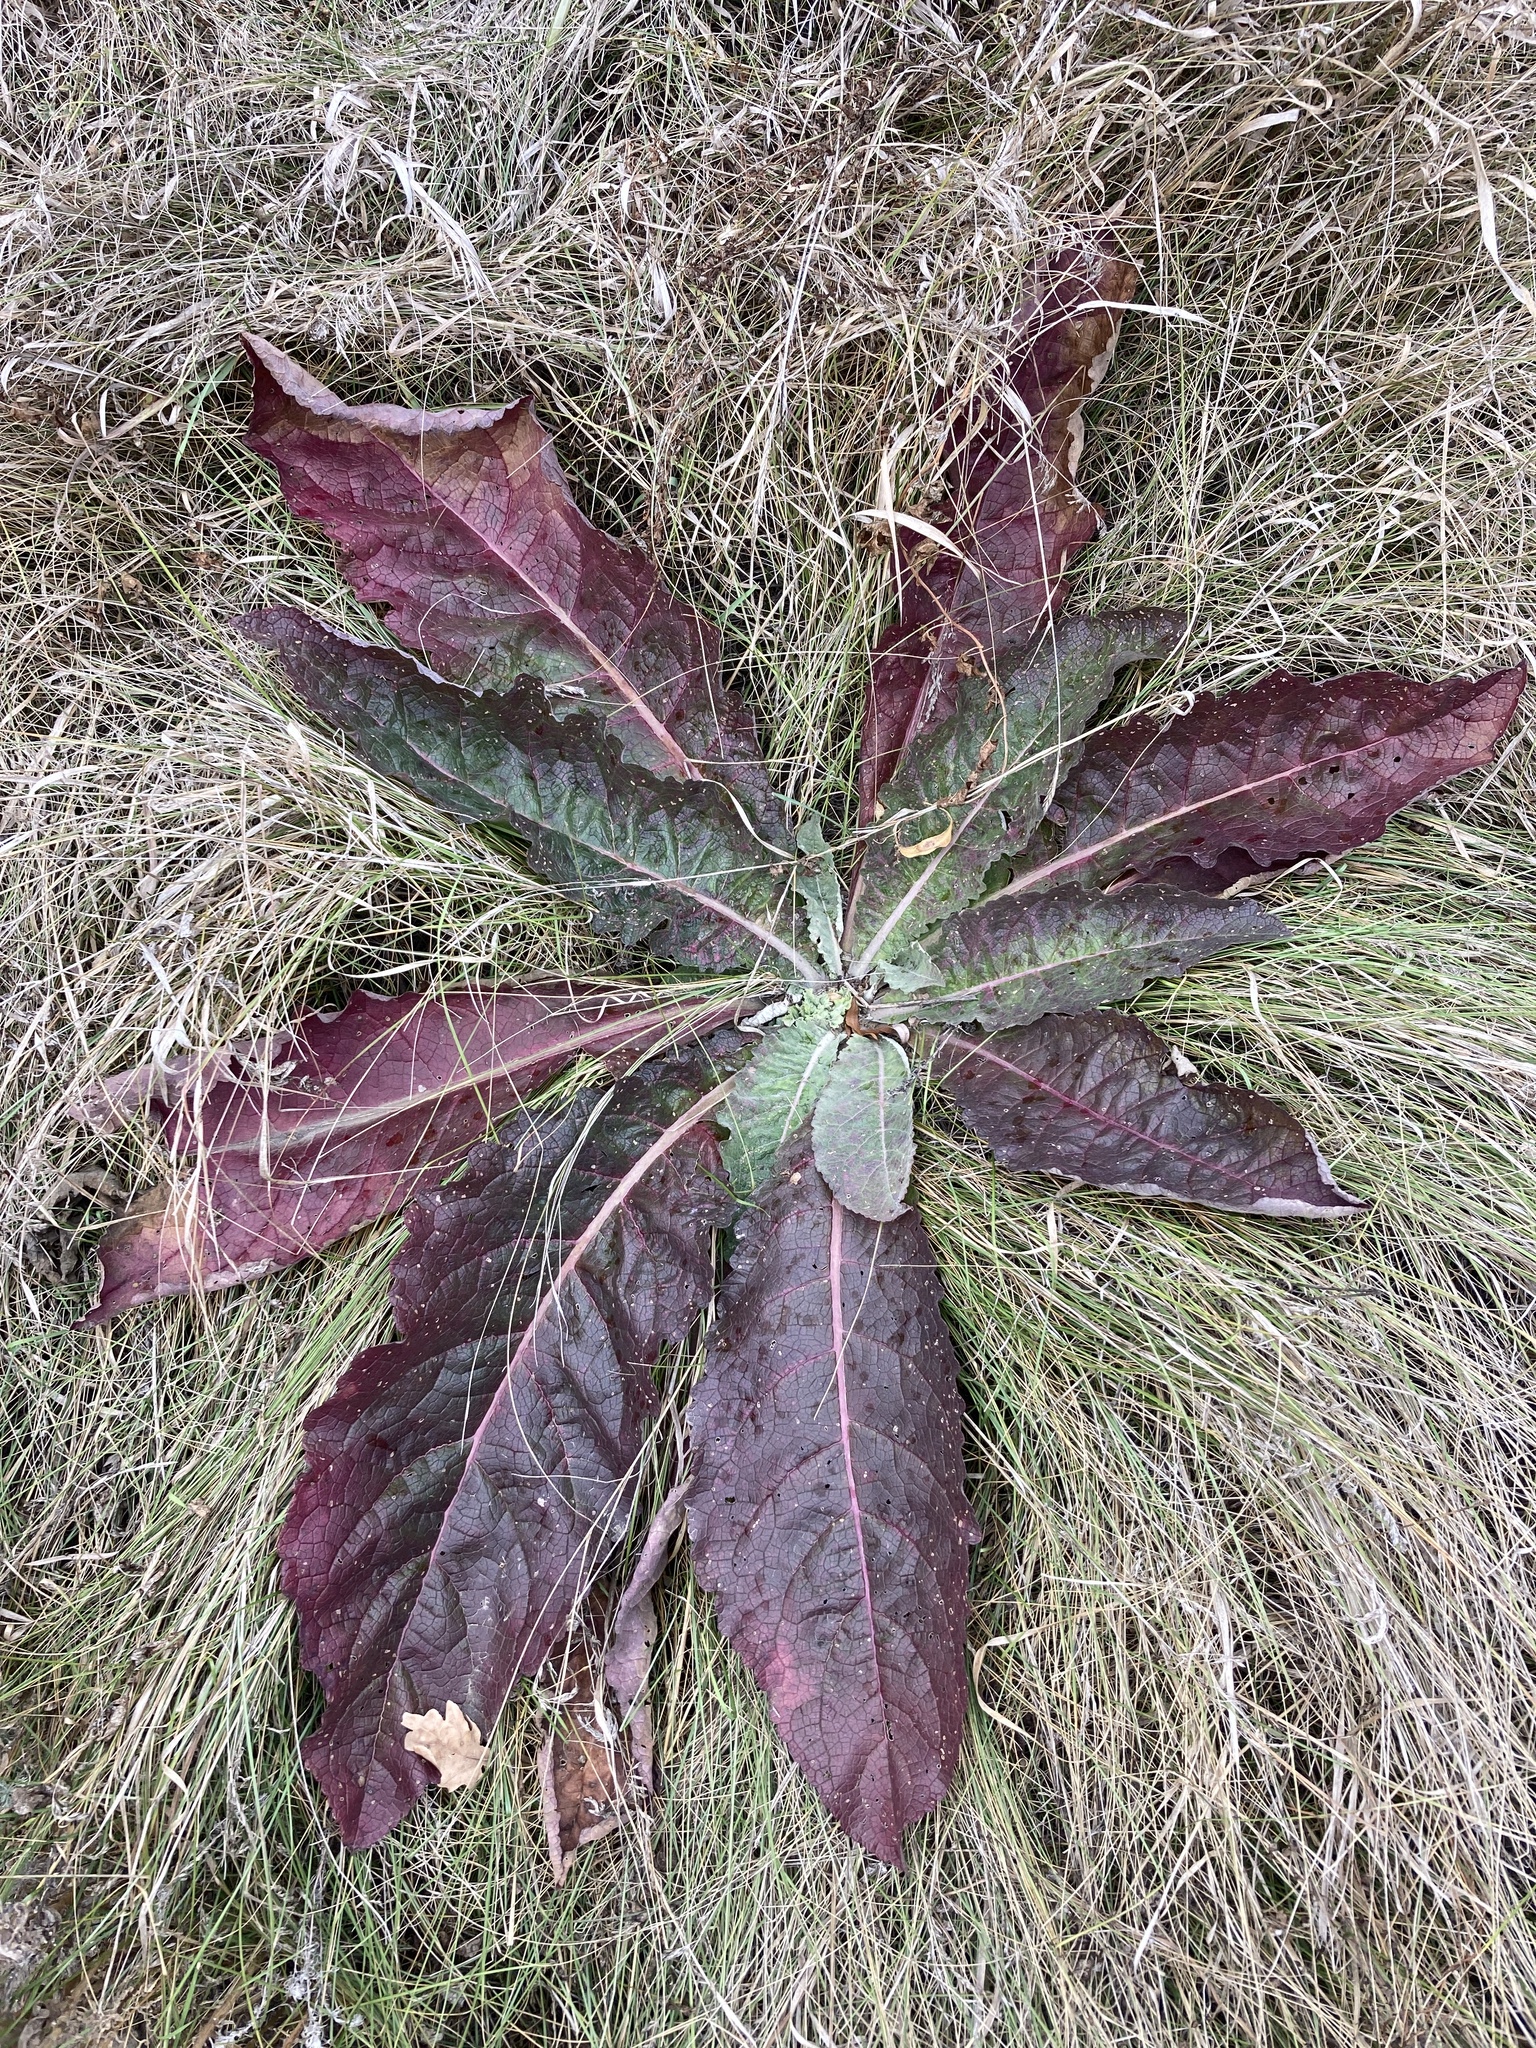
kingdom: Plantae
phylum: Tracheophyta
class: Magnoliopsida
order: Lamiales
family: Scrophulariaceae
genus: Verbascum
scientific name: Verbascum lychnitis
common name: White mullein
